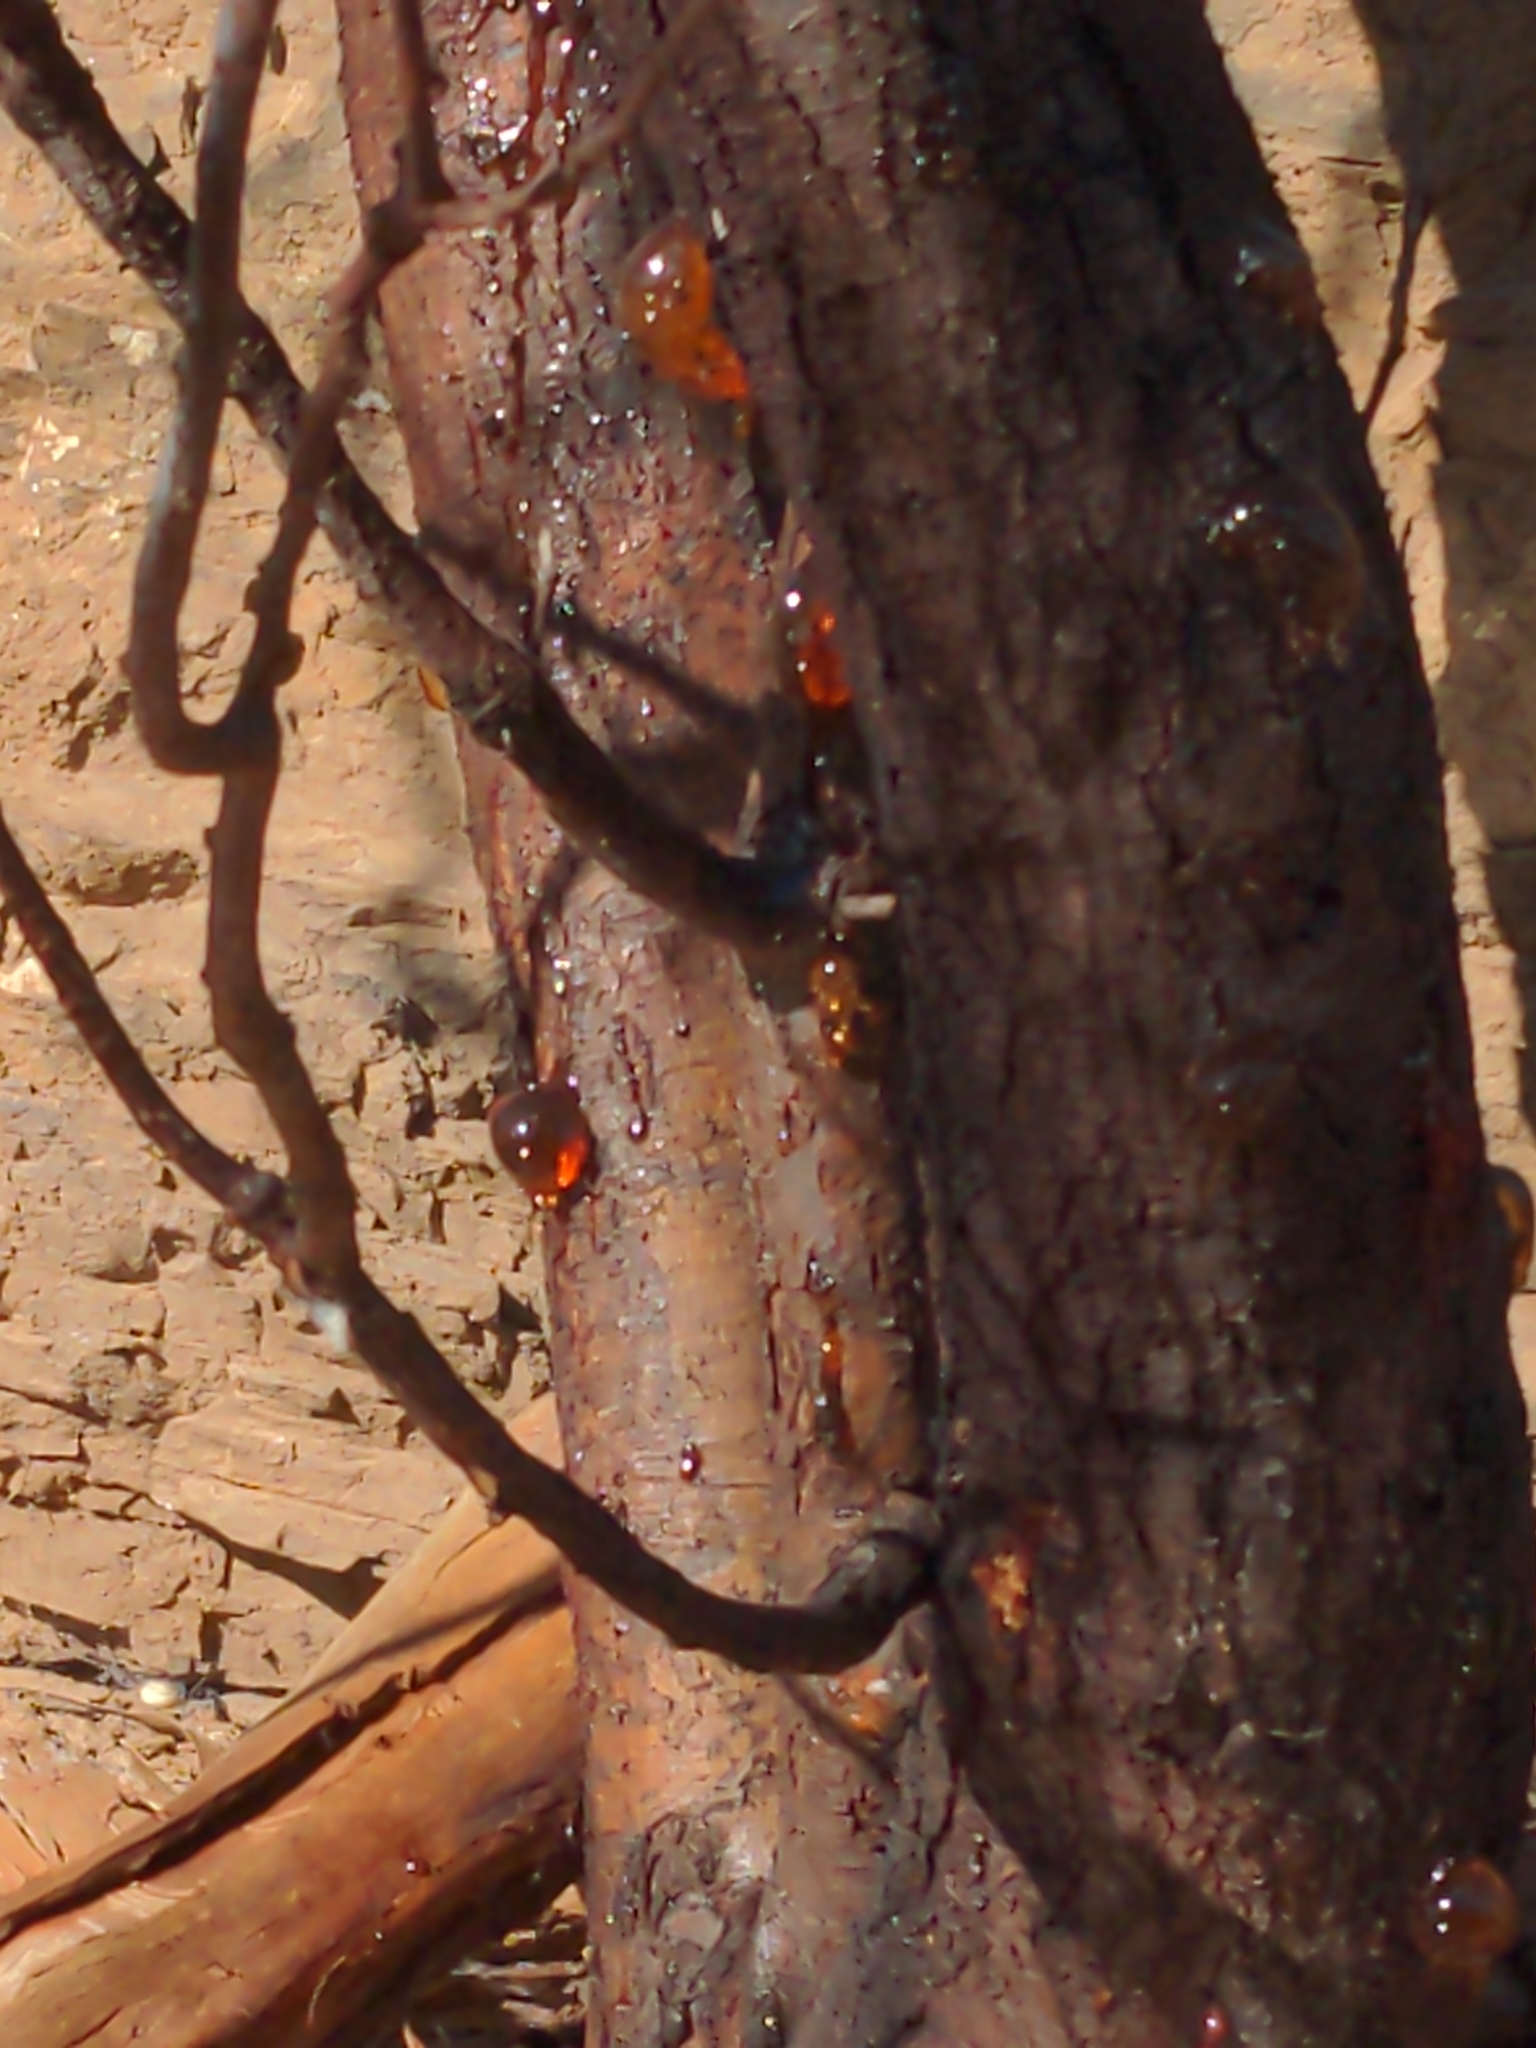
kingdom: Plantae
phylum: Tracheophyta
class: Magnoliopsida
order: Fabales
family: Fabaceae
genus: Acacia
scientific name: Acacia pycnantha
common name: Golden wattle
